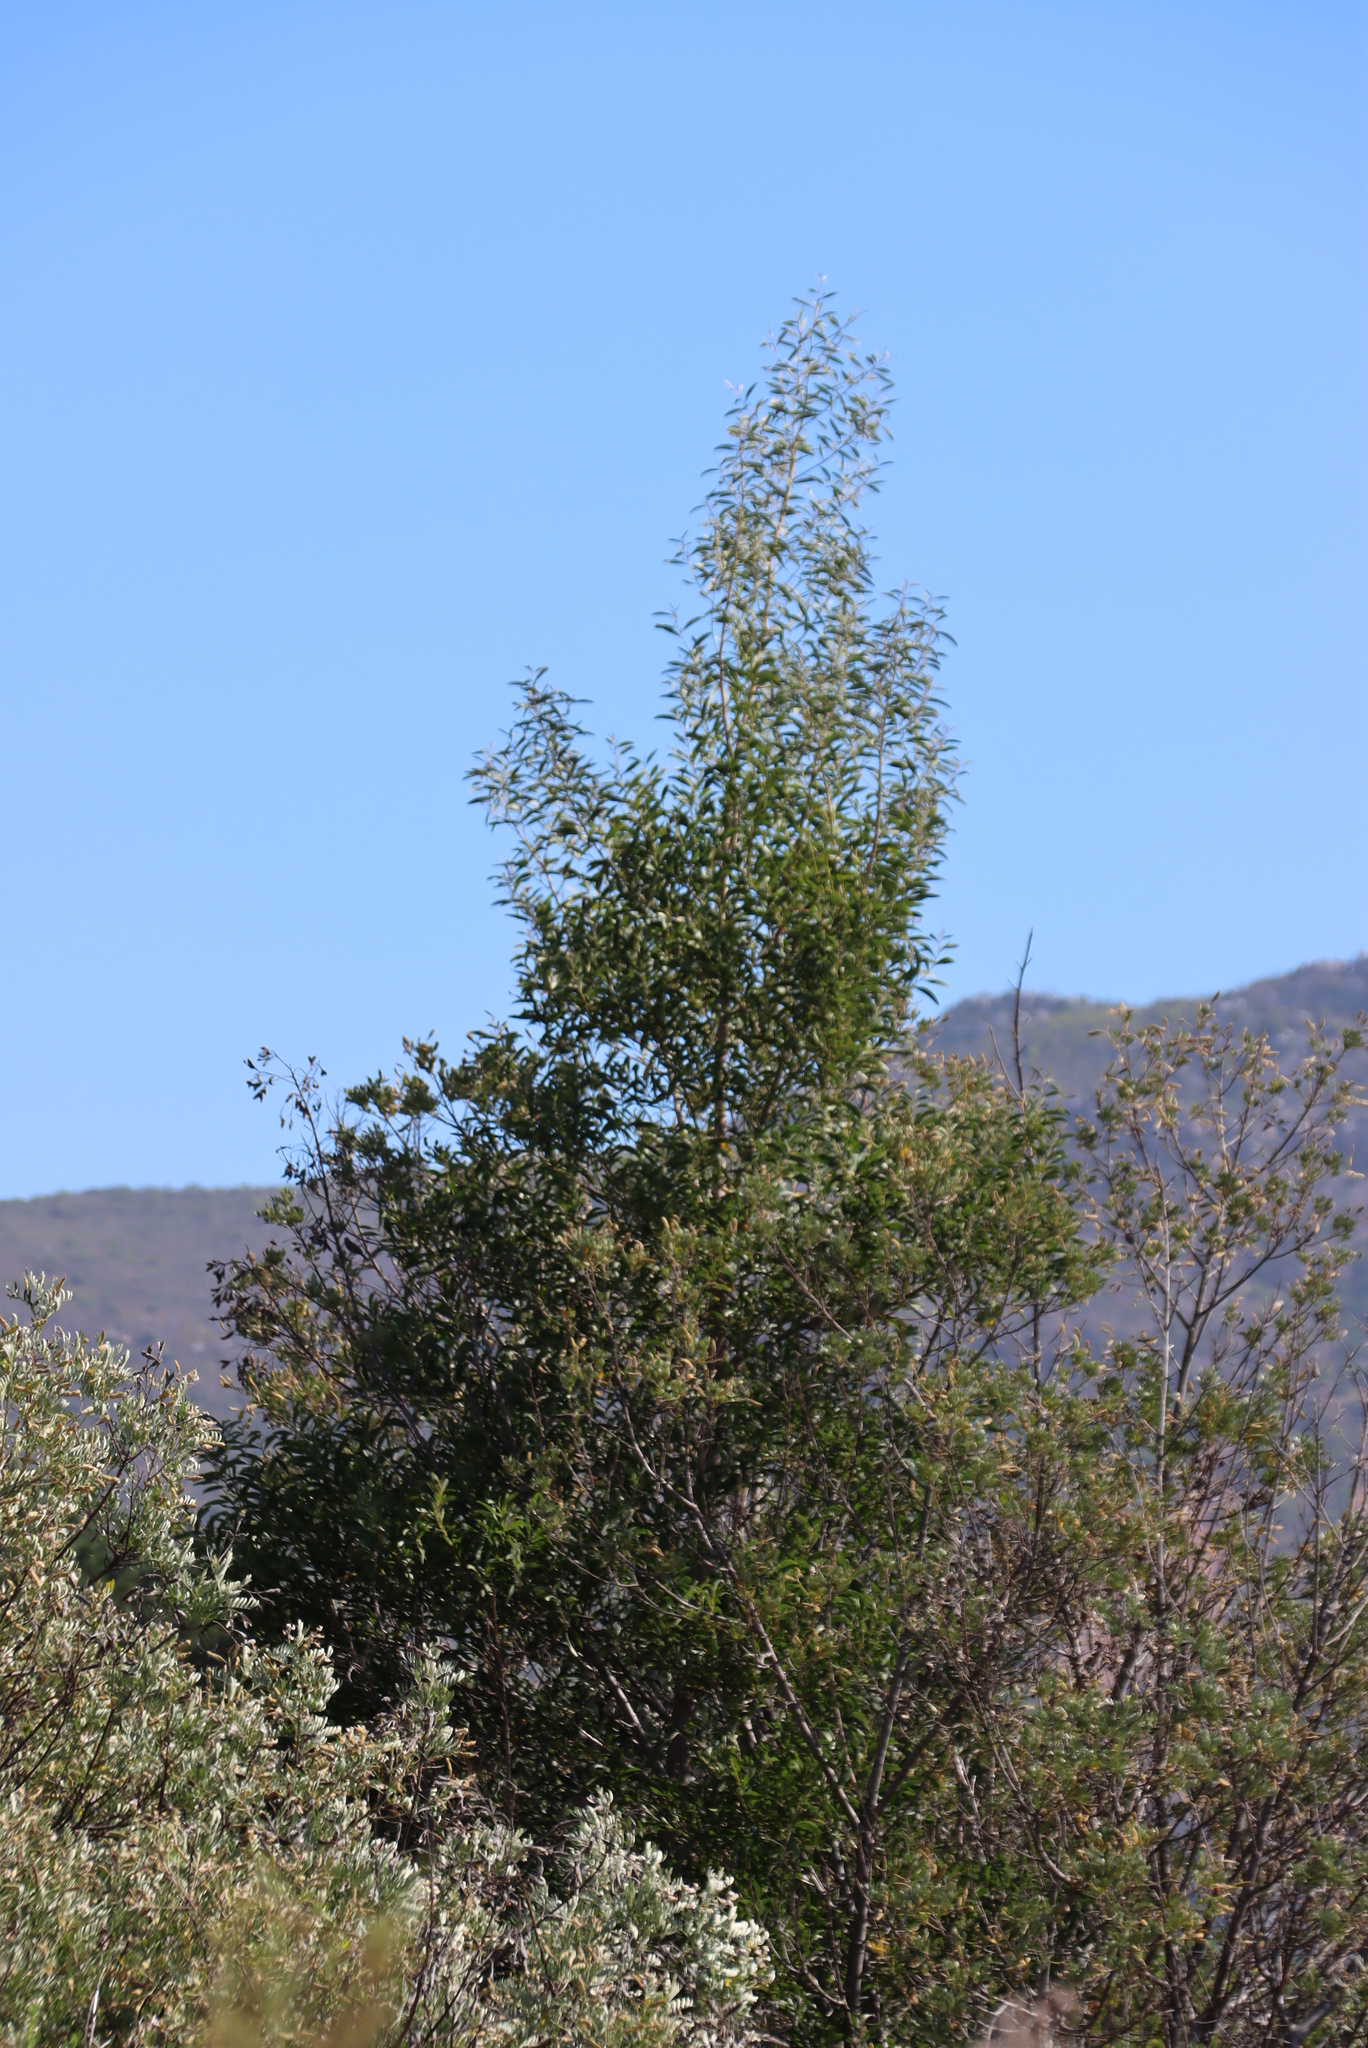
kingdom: Plantae
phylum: Tracheophyta
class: Magnoliopsida
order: Fabales
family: Fabaceae
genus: Acacia
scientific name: Acacia melanoxylon
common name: Blackwood
